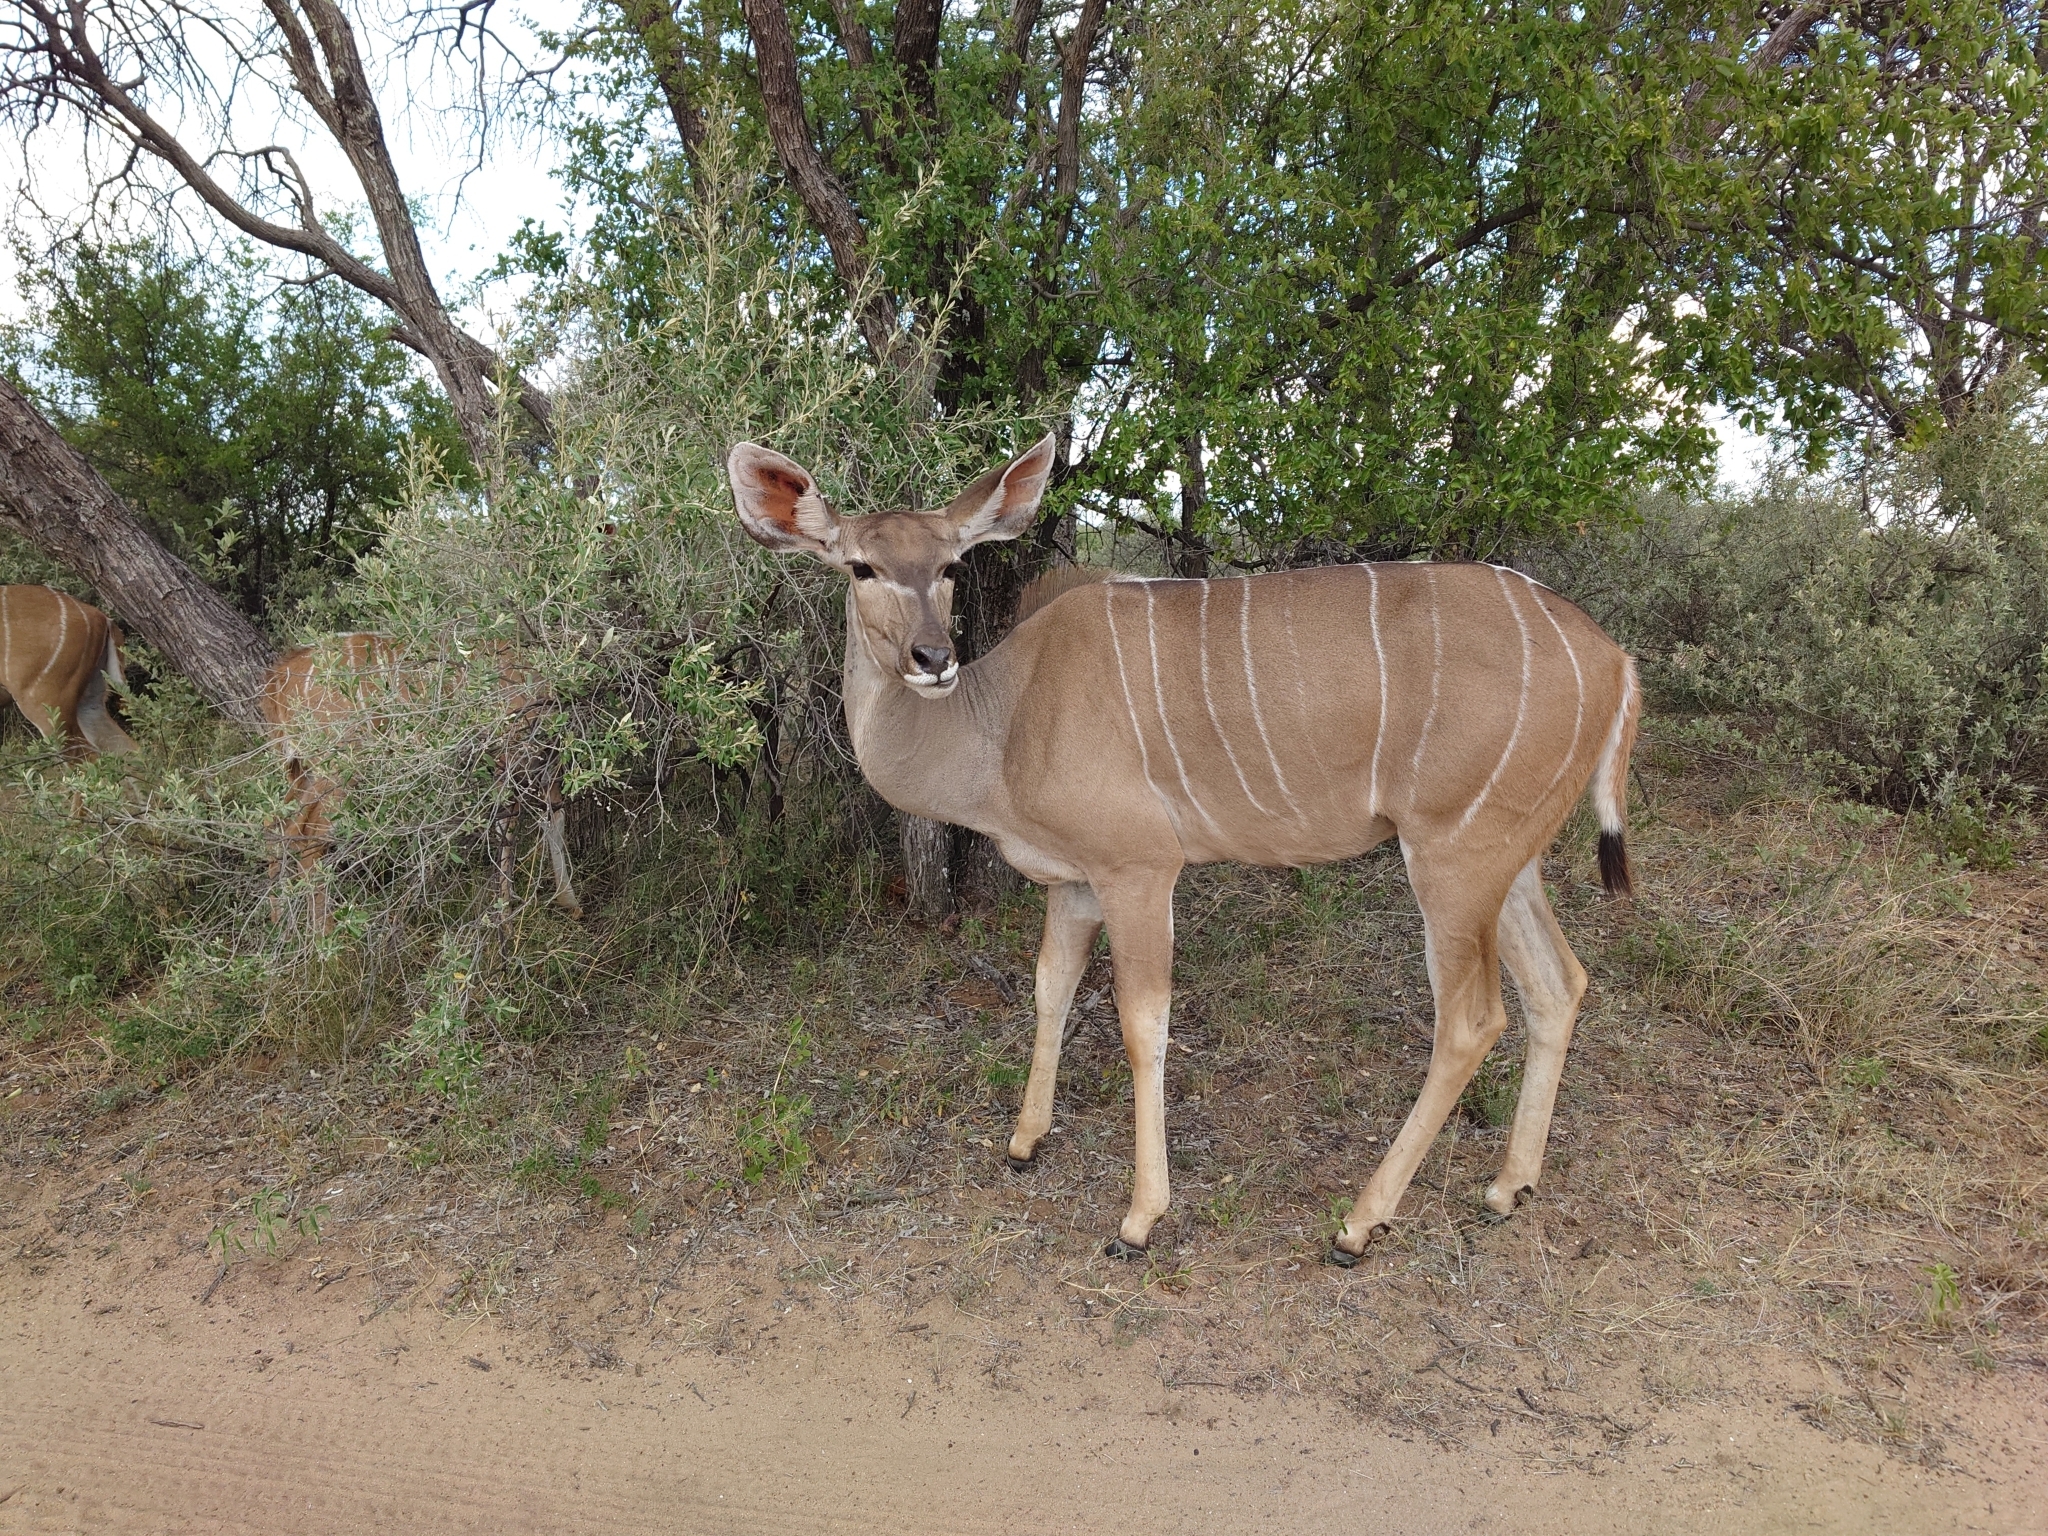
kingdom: Animalia
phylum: Chordata
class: Mammalia
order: Artiodactyla
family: Bovidae
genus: Tragelaphus
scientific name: Tragelaphus strepsiceros
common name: Greater kudu
